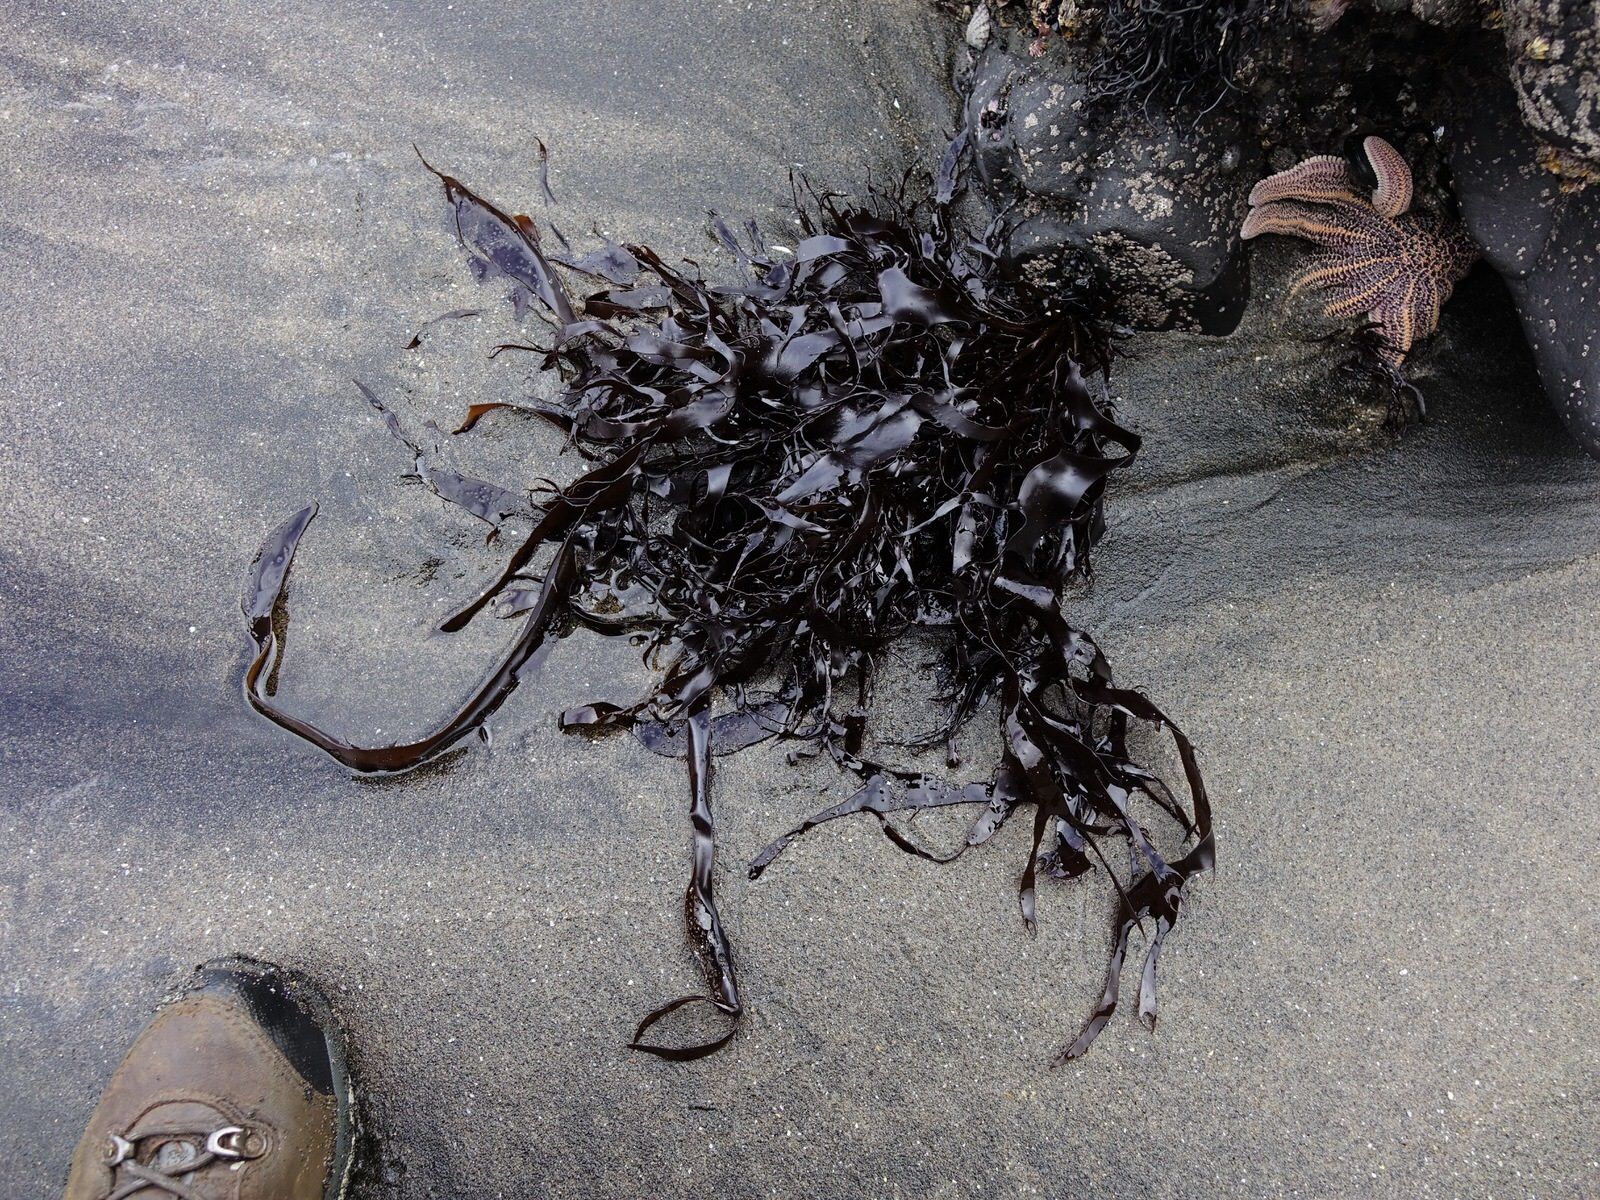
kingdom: Plantae
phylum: Rhodophyta
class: Florideophyceae
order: Halymeniales
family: Halymeniaceae
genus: Pachymenia
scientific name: Pachymenia lusoria
